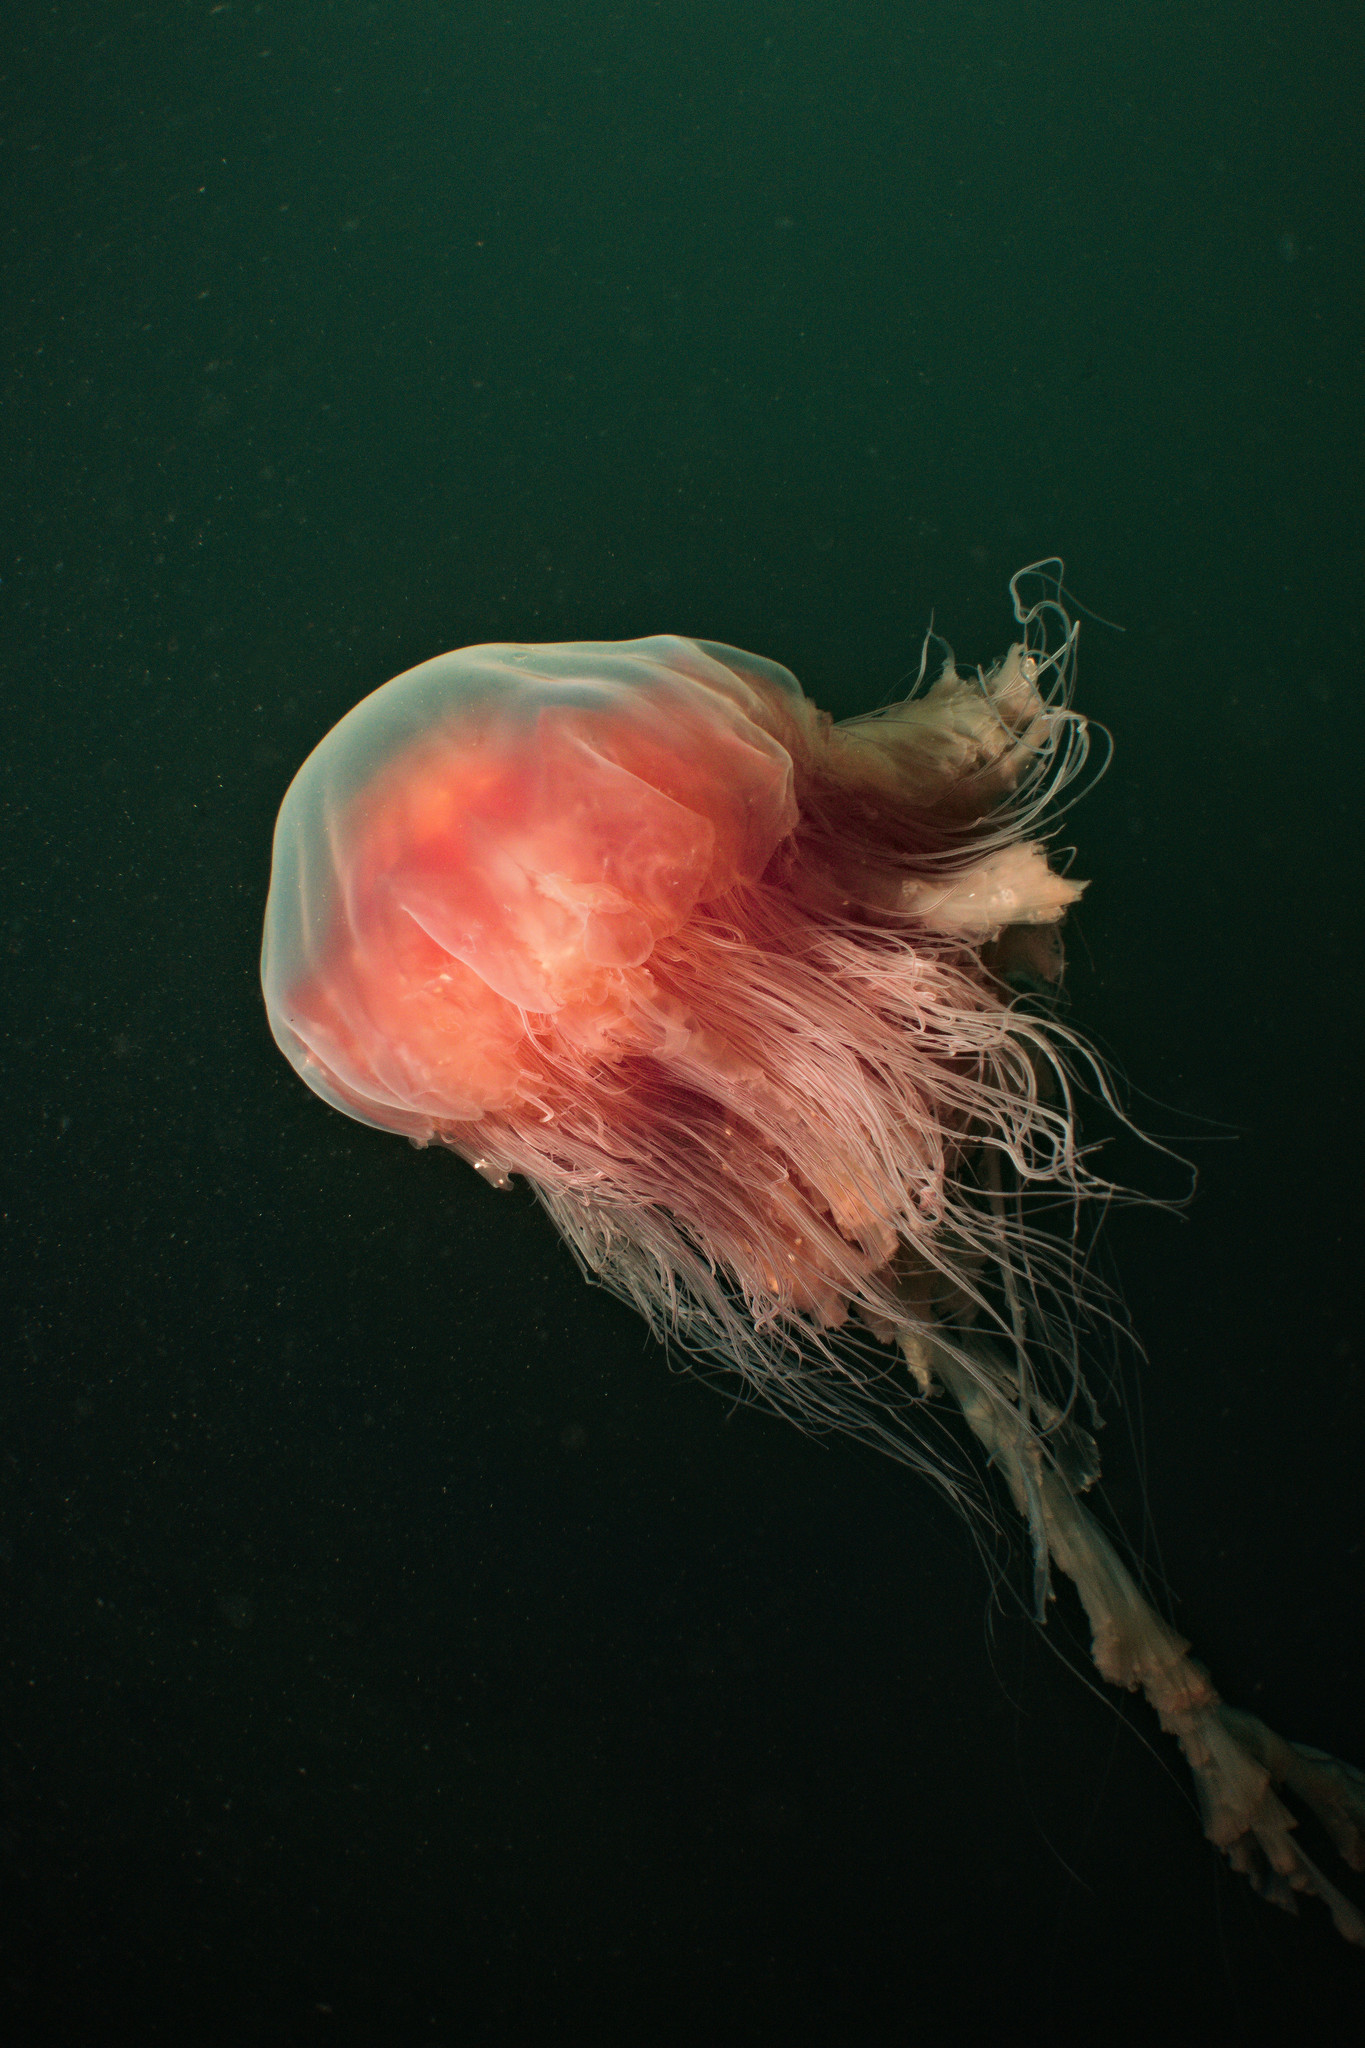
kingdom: Animalia
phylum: Cnidaria
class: Scyphozoa
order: Semaeostomeae
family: Cyaneidae
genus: Cyanea
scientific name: Cyanea capillata
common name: Lion's mane jellyfish
